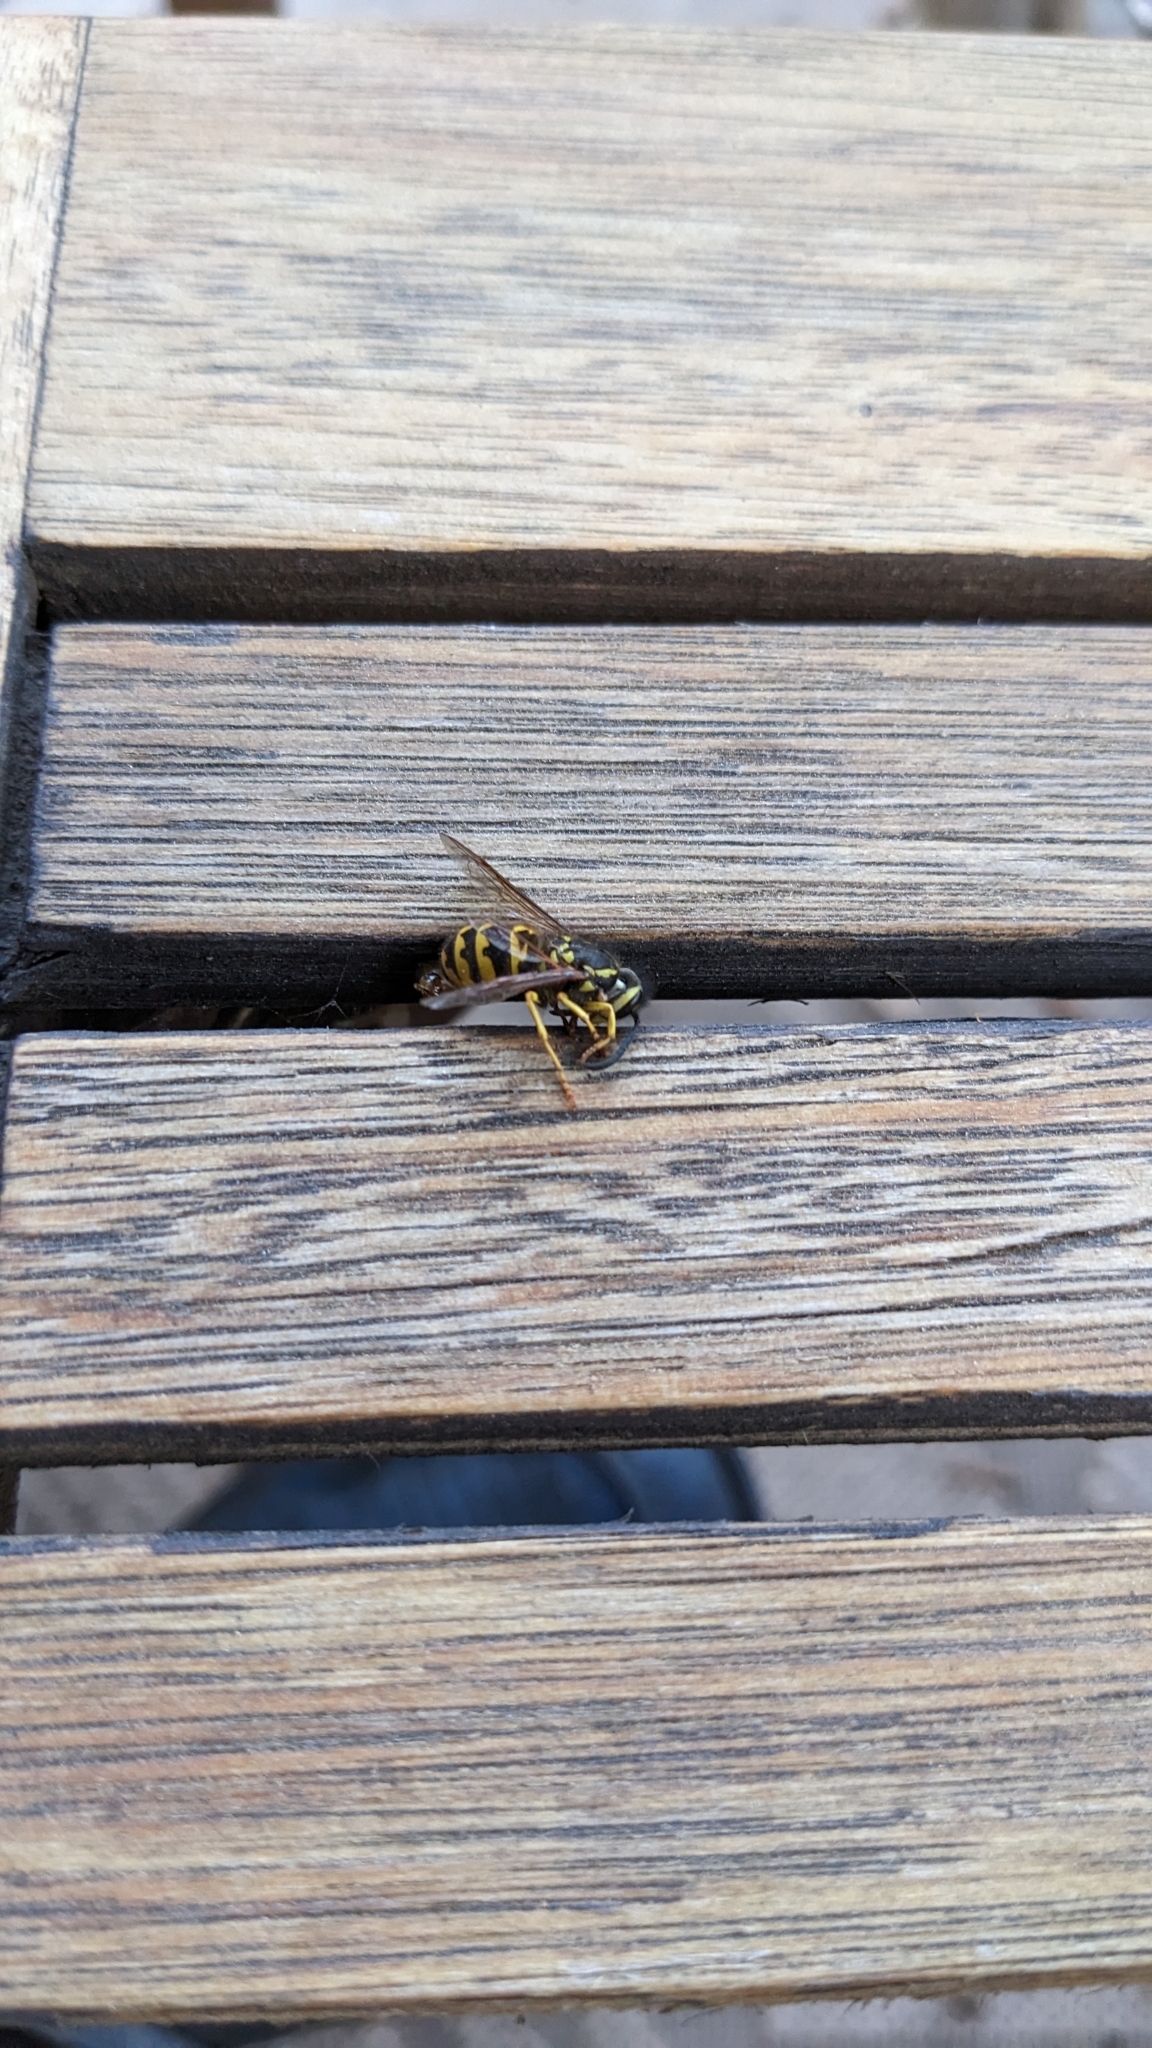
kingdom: Animalia
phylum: Arthropoda
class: Insecta
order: Hymenoptera
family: Vespidae
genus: Vespula
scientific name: Vespula pensylvanica
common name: Western yellowjacket
